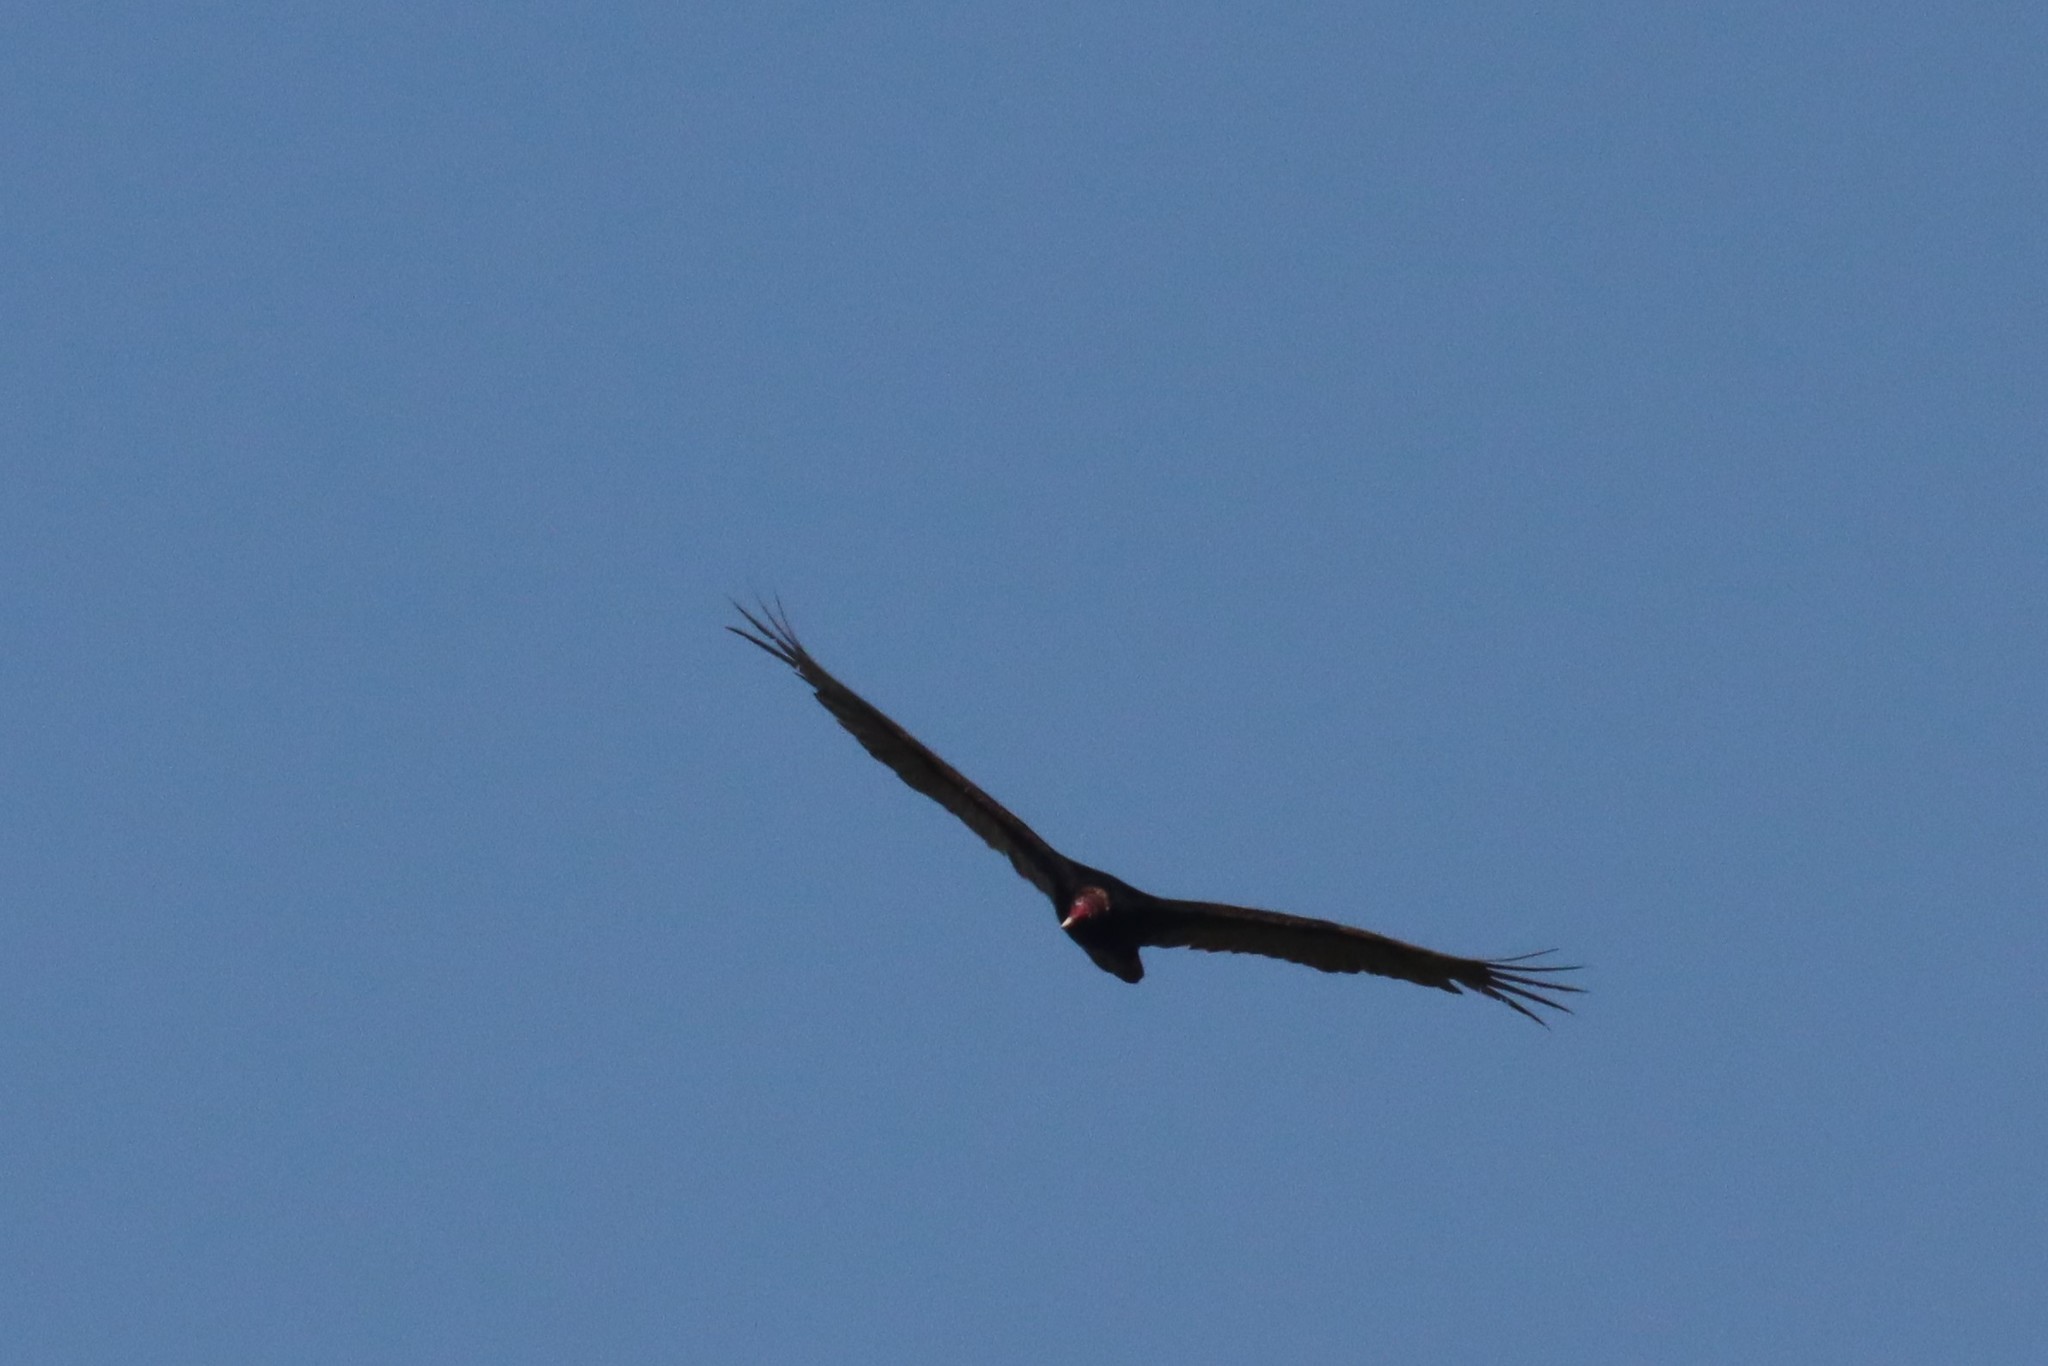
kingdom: Animalia
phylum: Chordata
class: Aves
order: Accipitriformes
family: Cathartidae
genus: Cathartes
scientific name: Cathartes aura
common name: Turkey vulture
